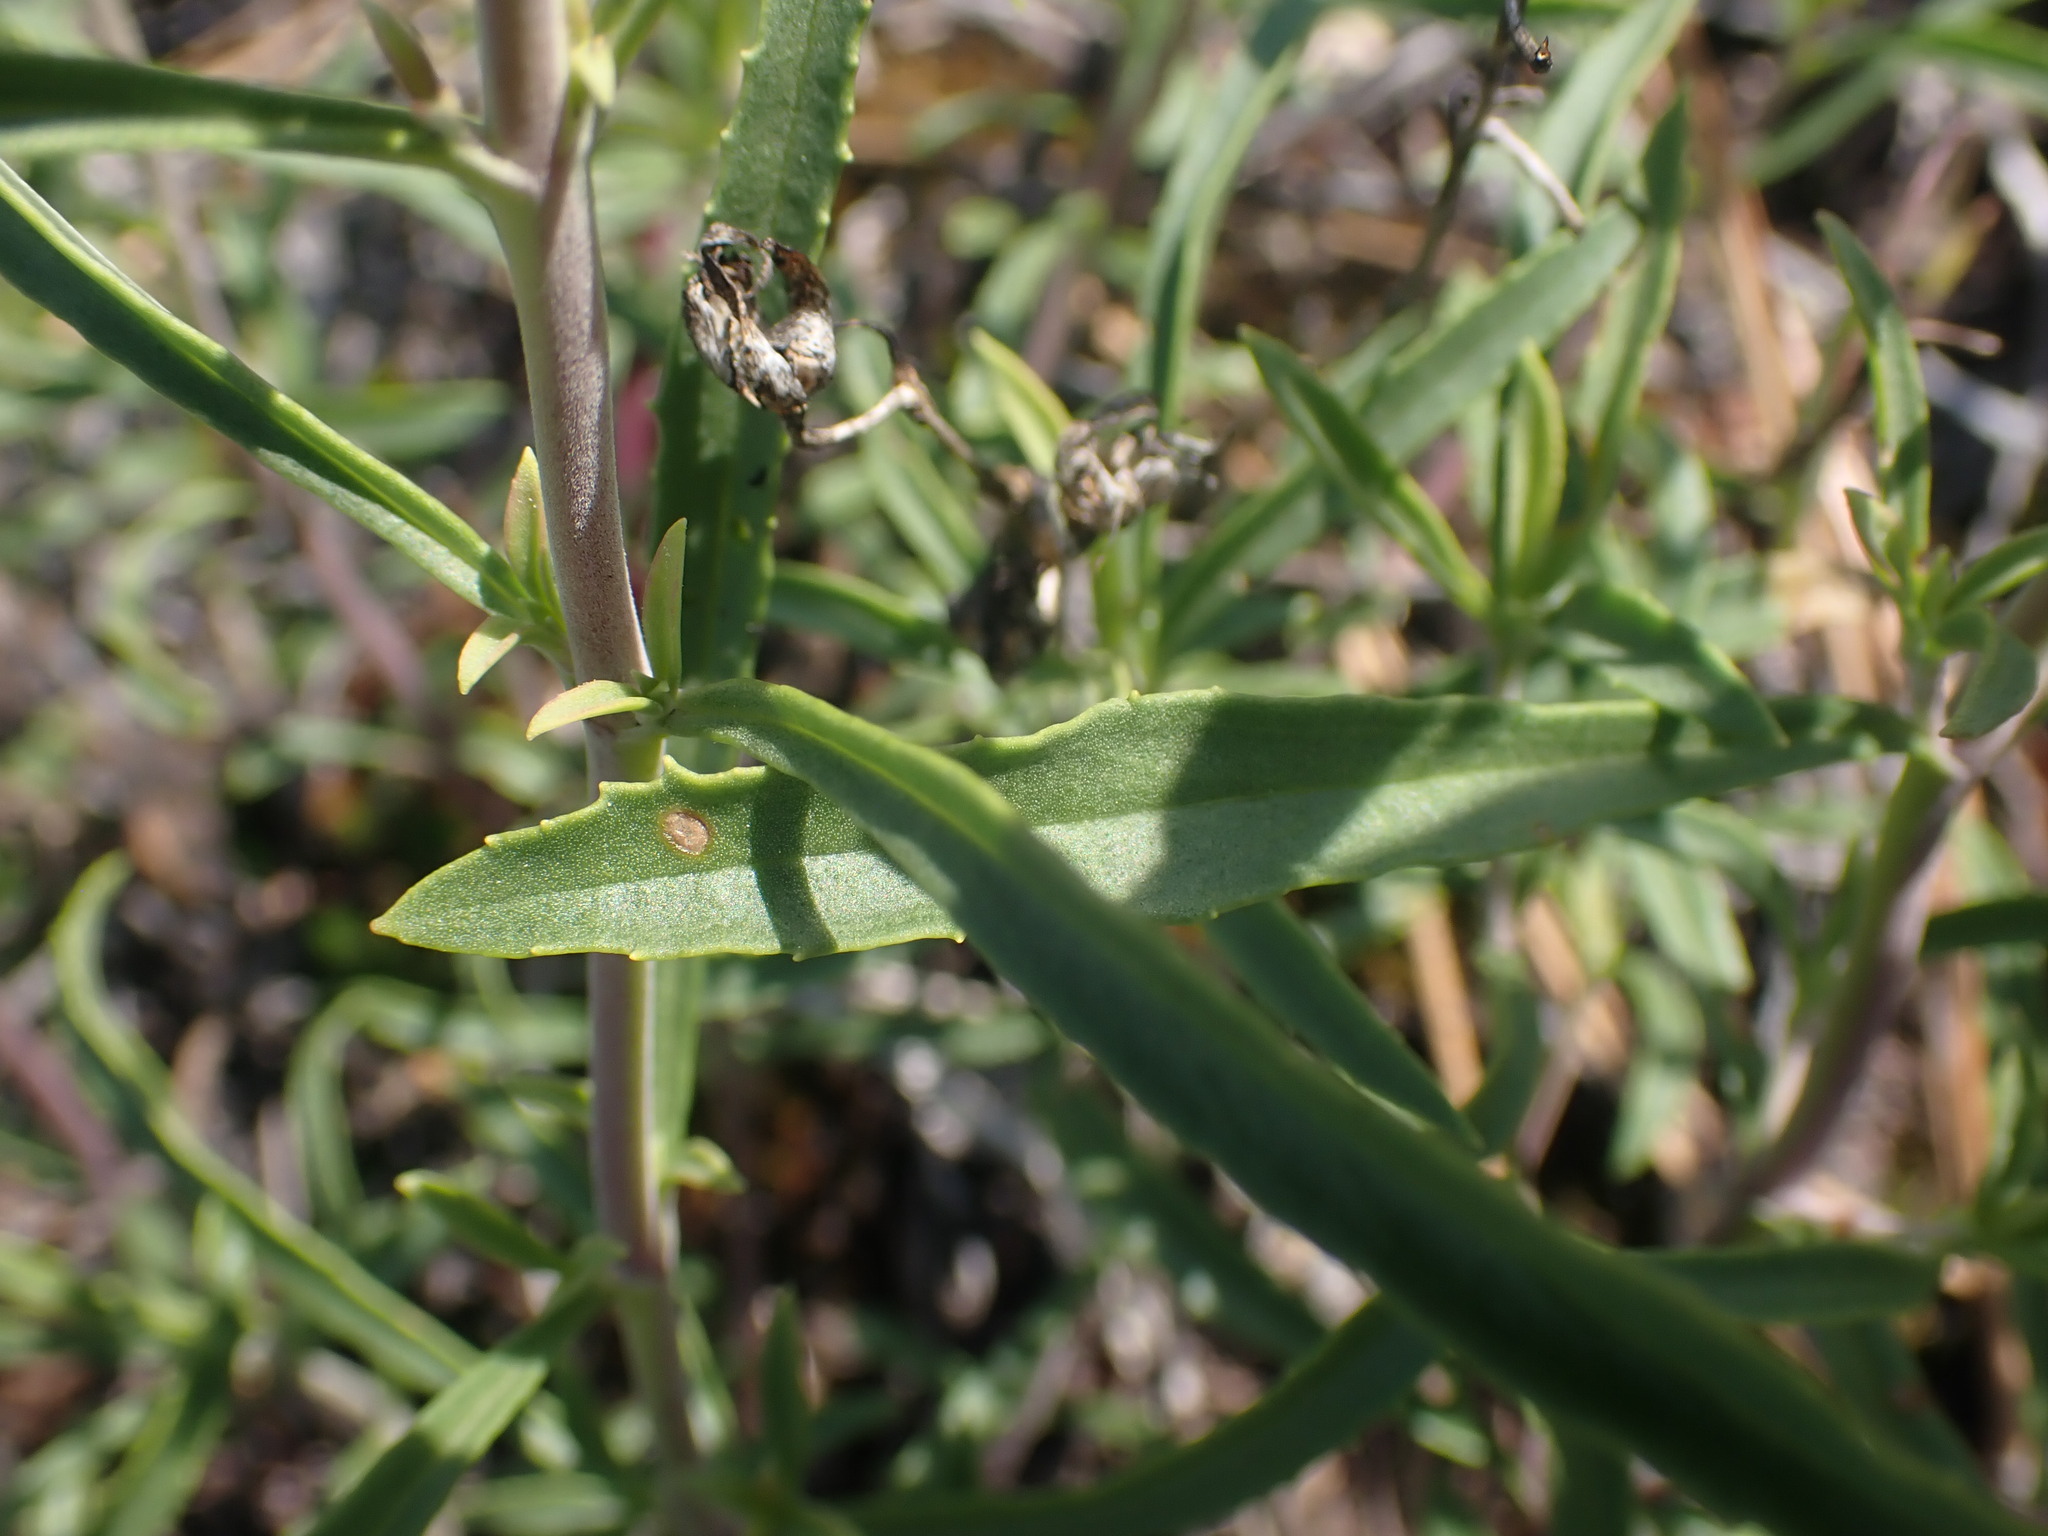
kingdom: Plantae
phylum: Tracheophyta
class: Magnoliopsida
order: Lamiales
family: Plantaginaceae
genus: Penstemon
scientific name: Penstemon fruticosus
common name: Bush penstemon
